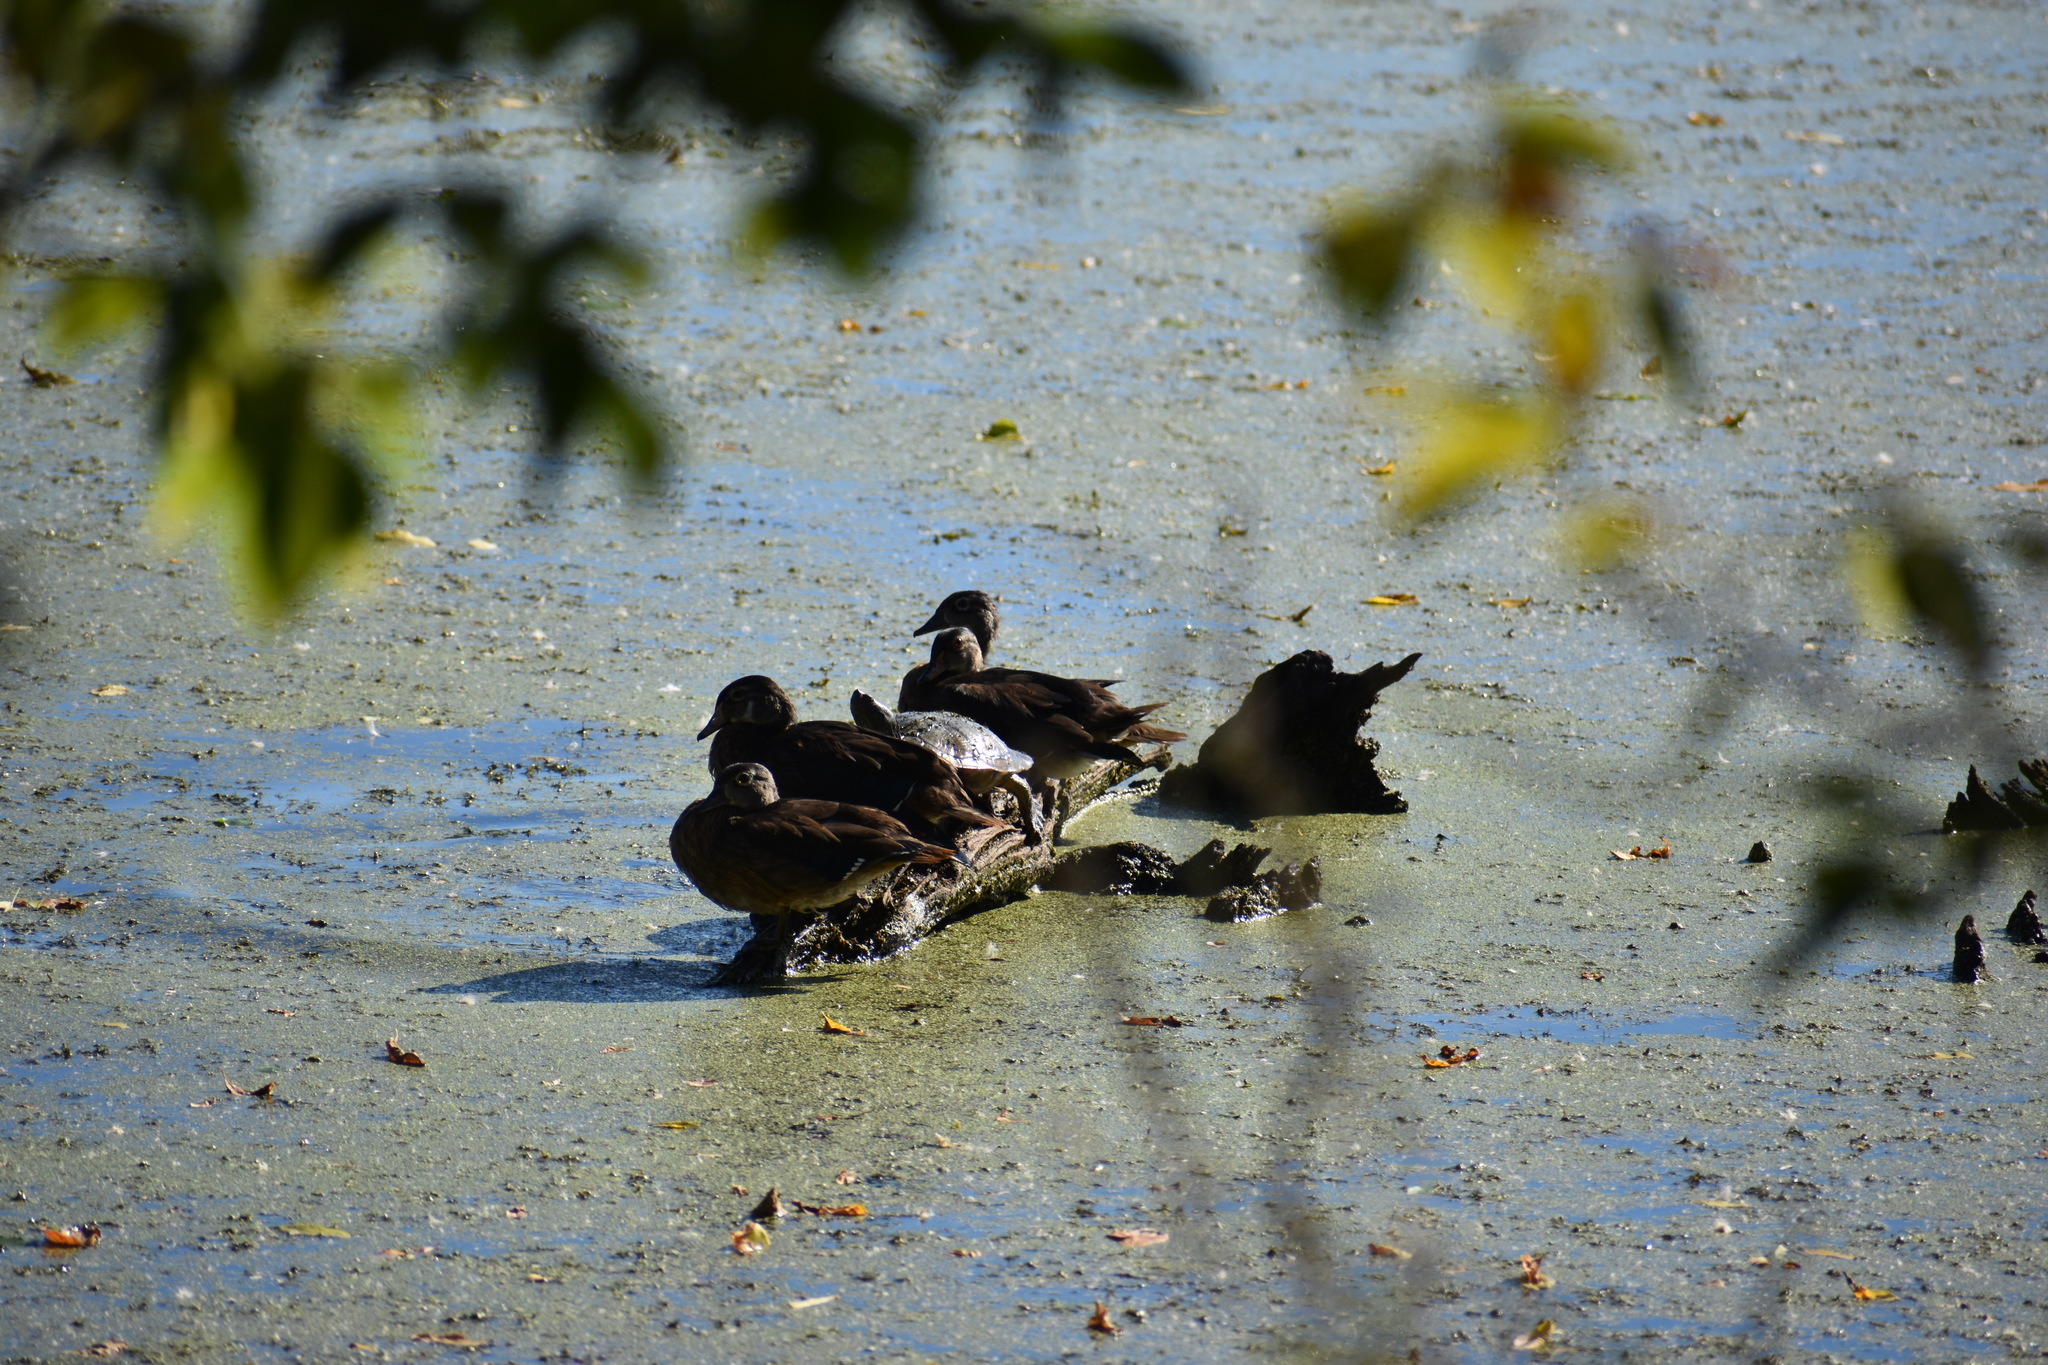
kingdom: Animalia
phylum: Chordata
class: Testudines
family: Emydidae
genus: Trachemys
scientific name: Trachemys scripta
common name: Slider
